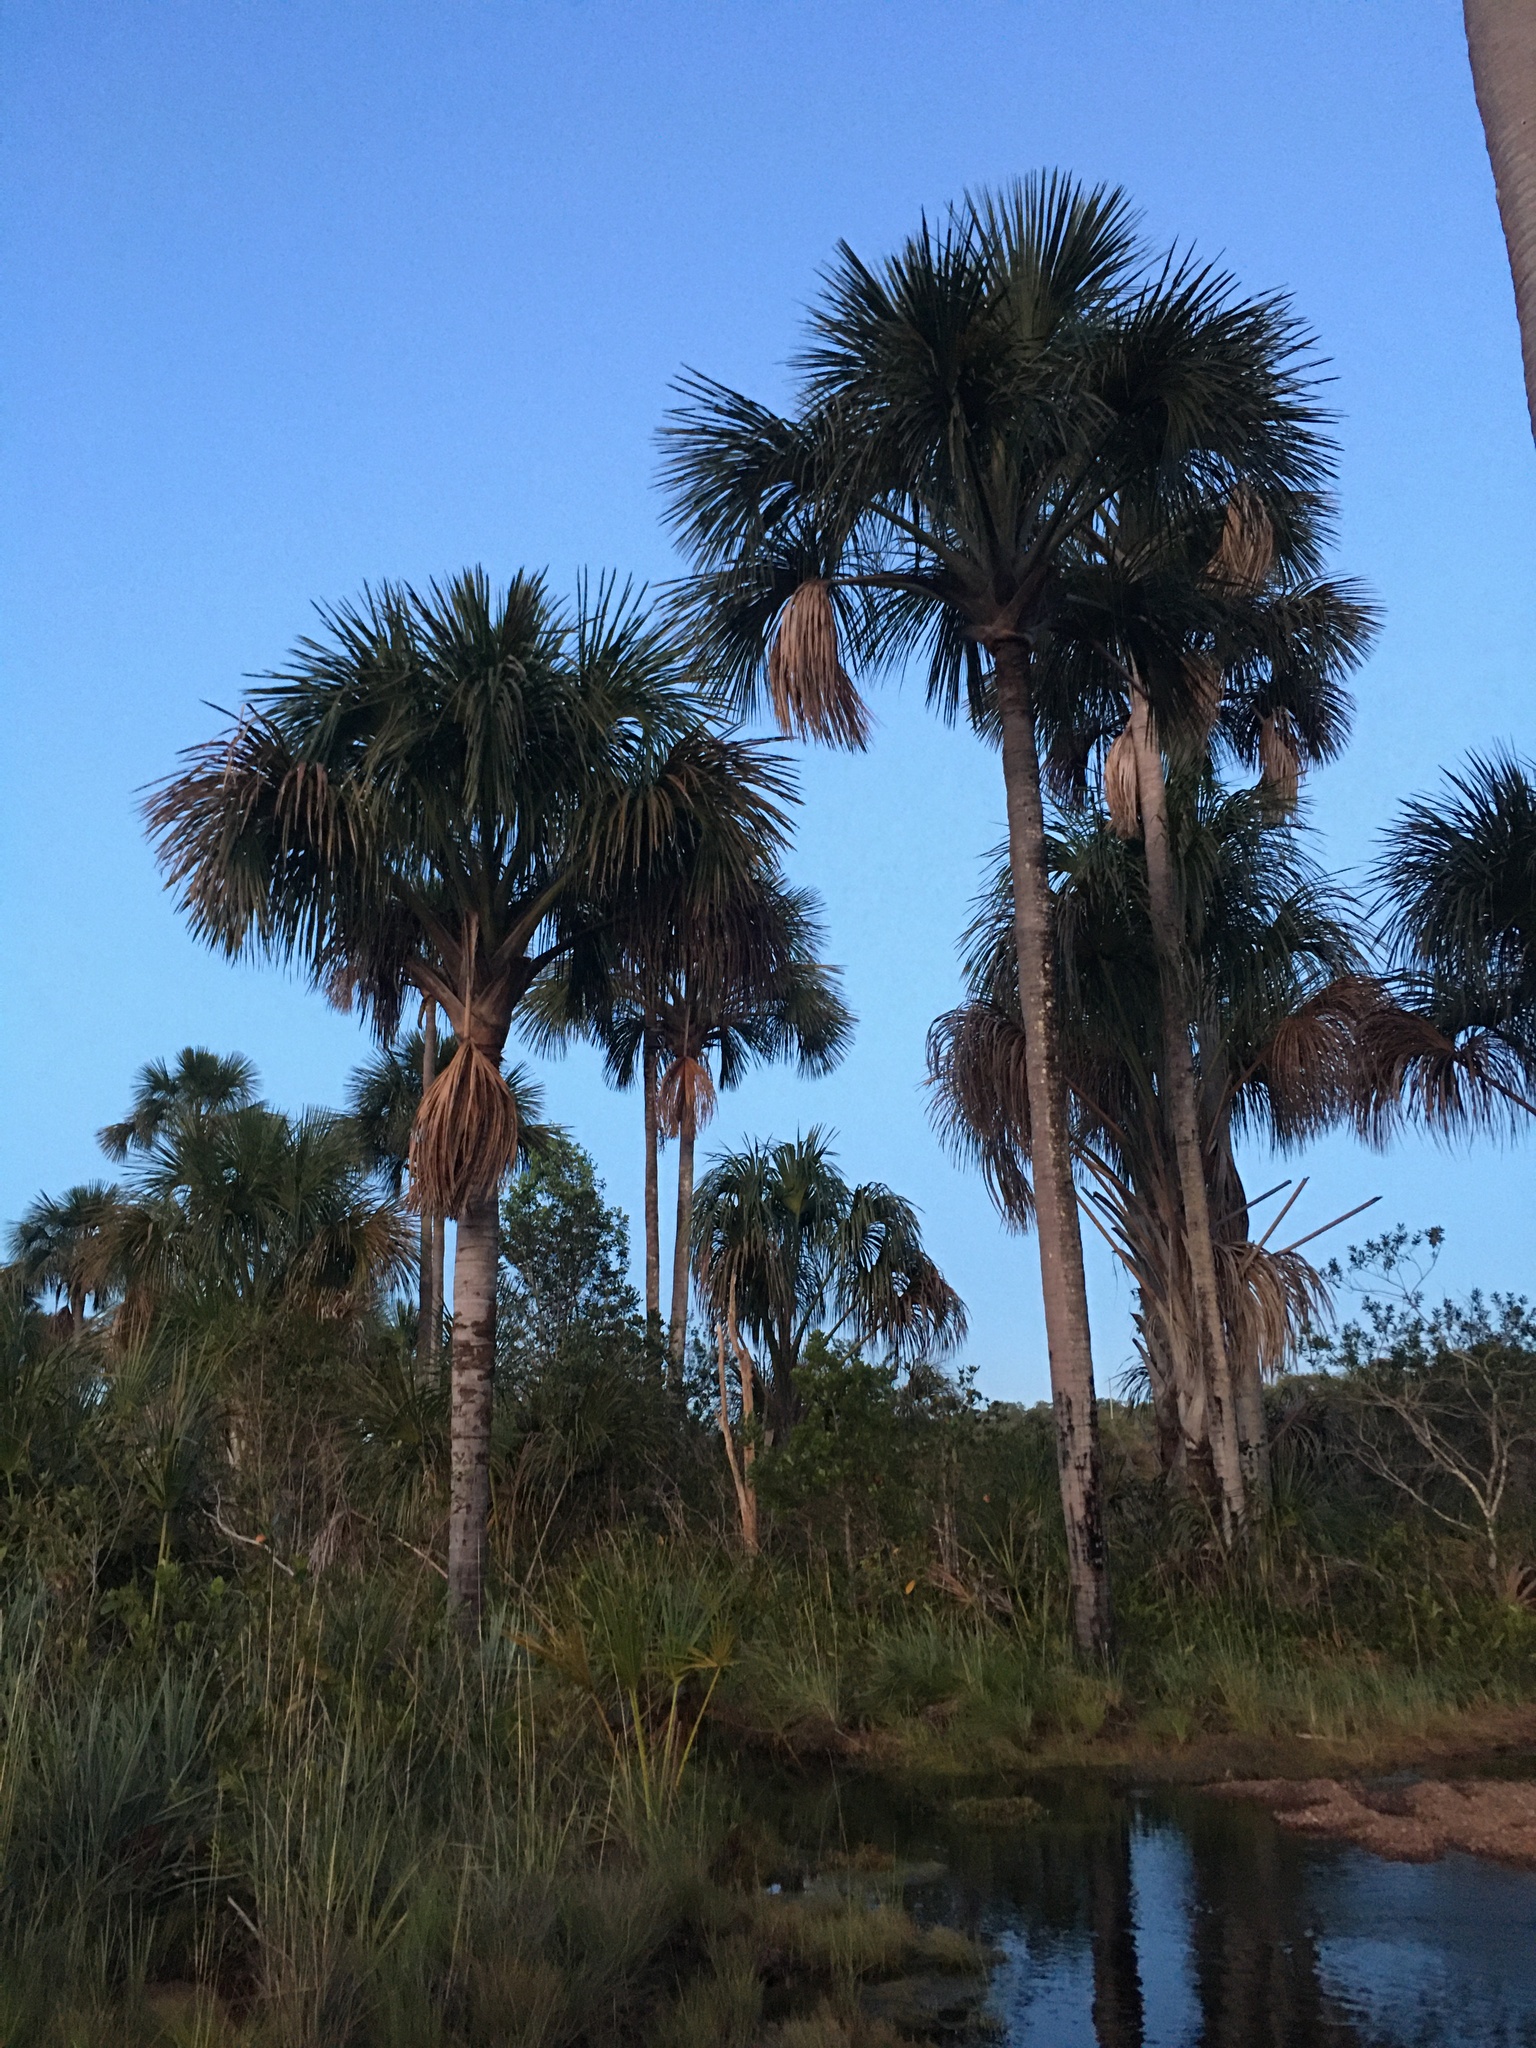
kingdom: Plantae
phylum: Tracheophyta
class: Liliopsida
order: Arecales
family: Arecaceae
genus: Mauritia
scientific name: Mauritia flexuosa
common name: Tree-of-life
